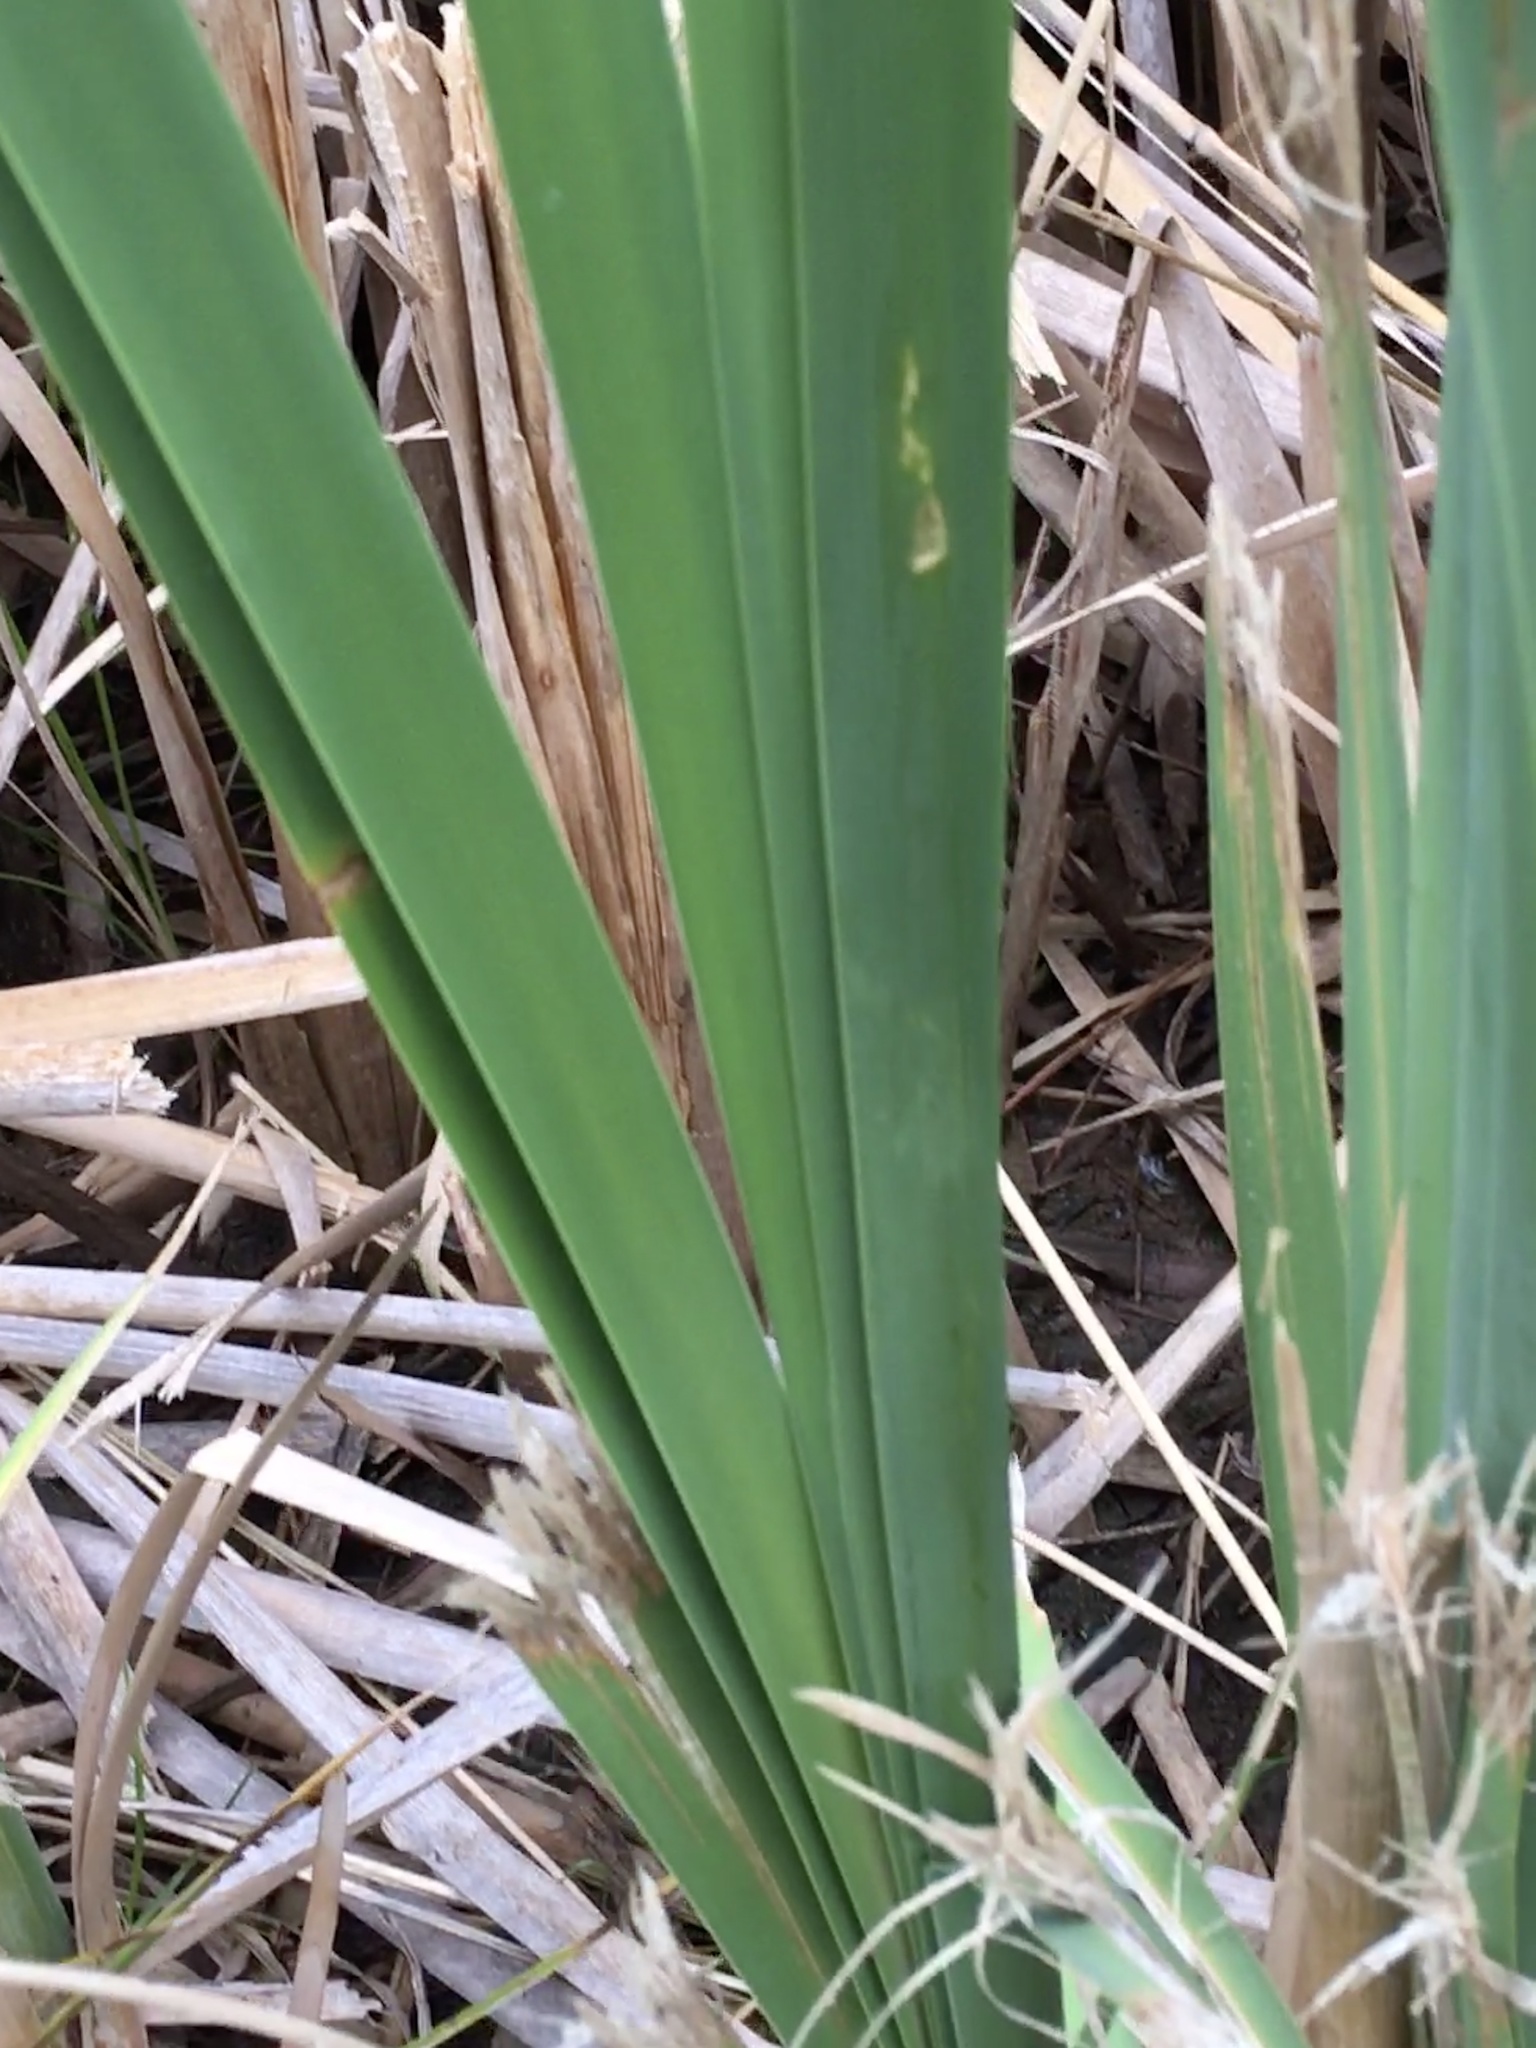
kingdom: Plantae
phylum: Tracheophyta
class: Liliopsida
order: Poales
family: Typhaceae
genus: Typha
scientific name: Typha latifolia
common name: Broadleaf cattail
